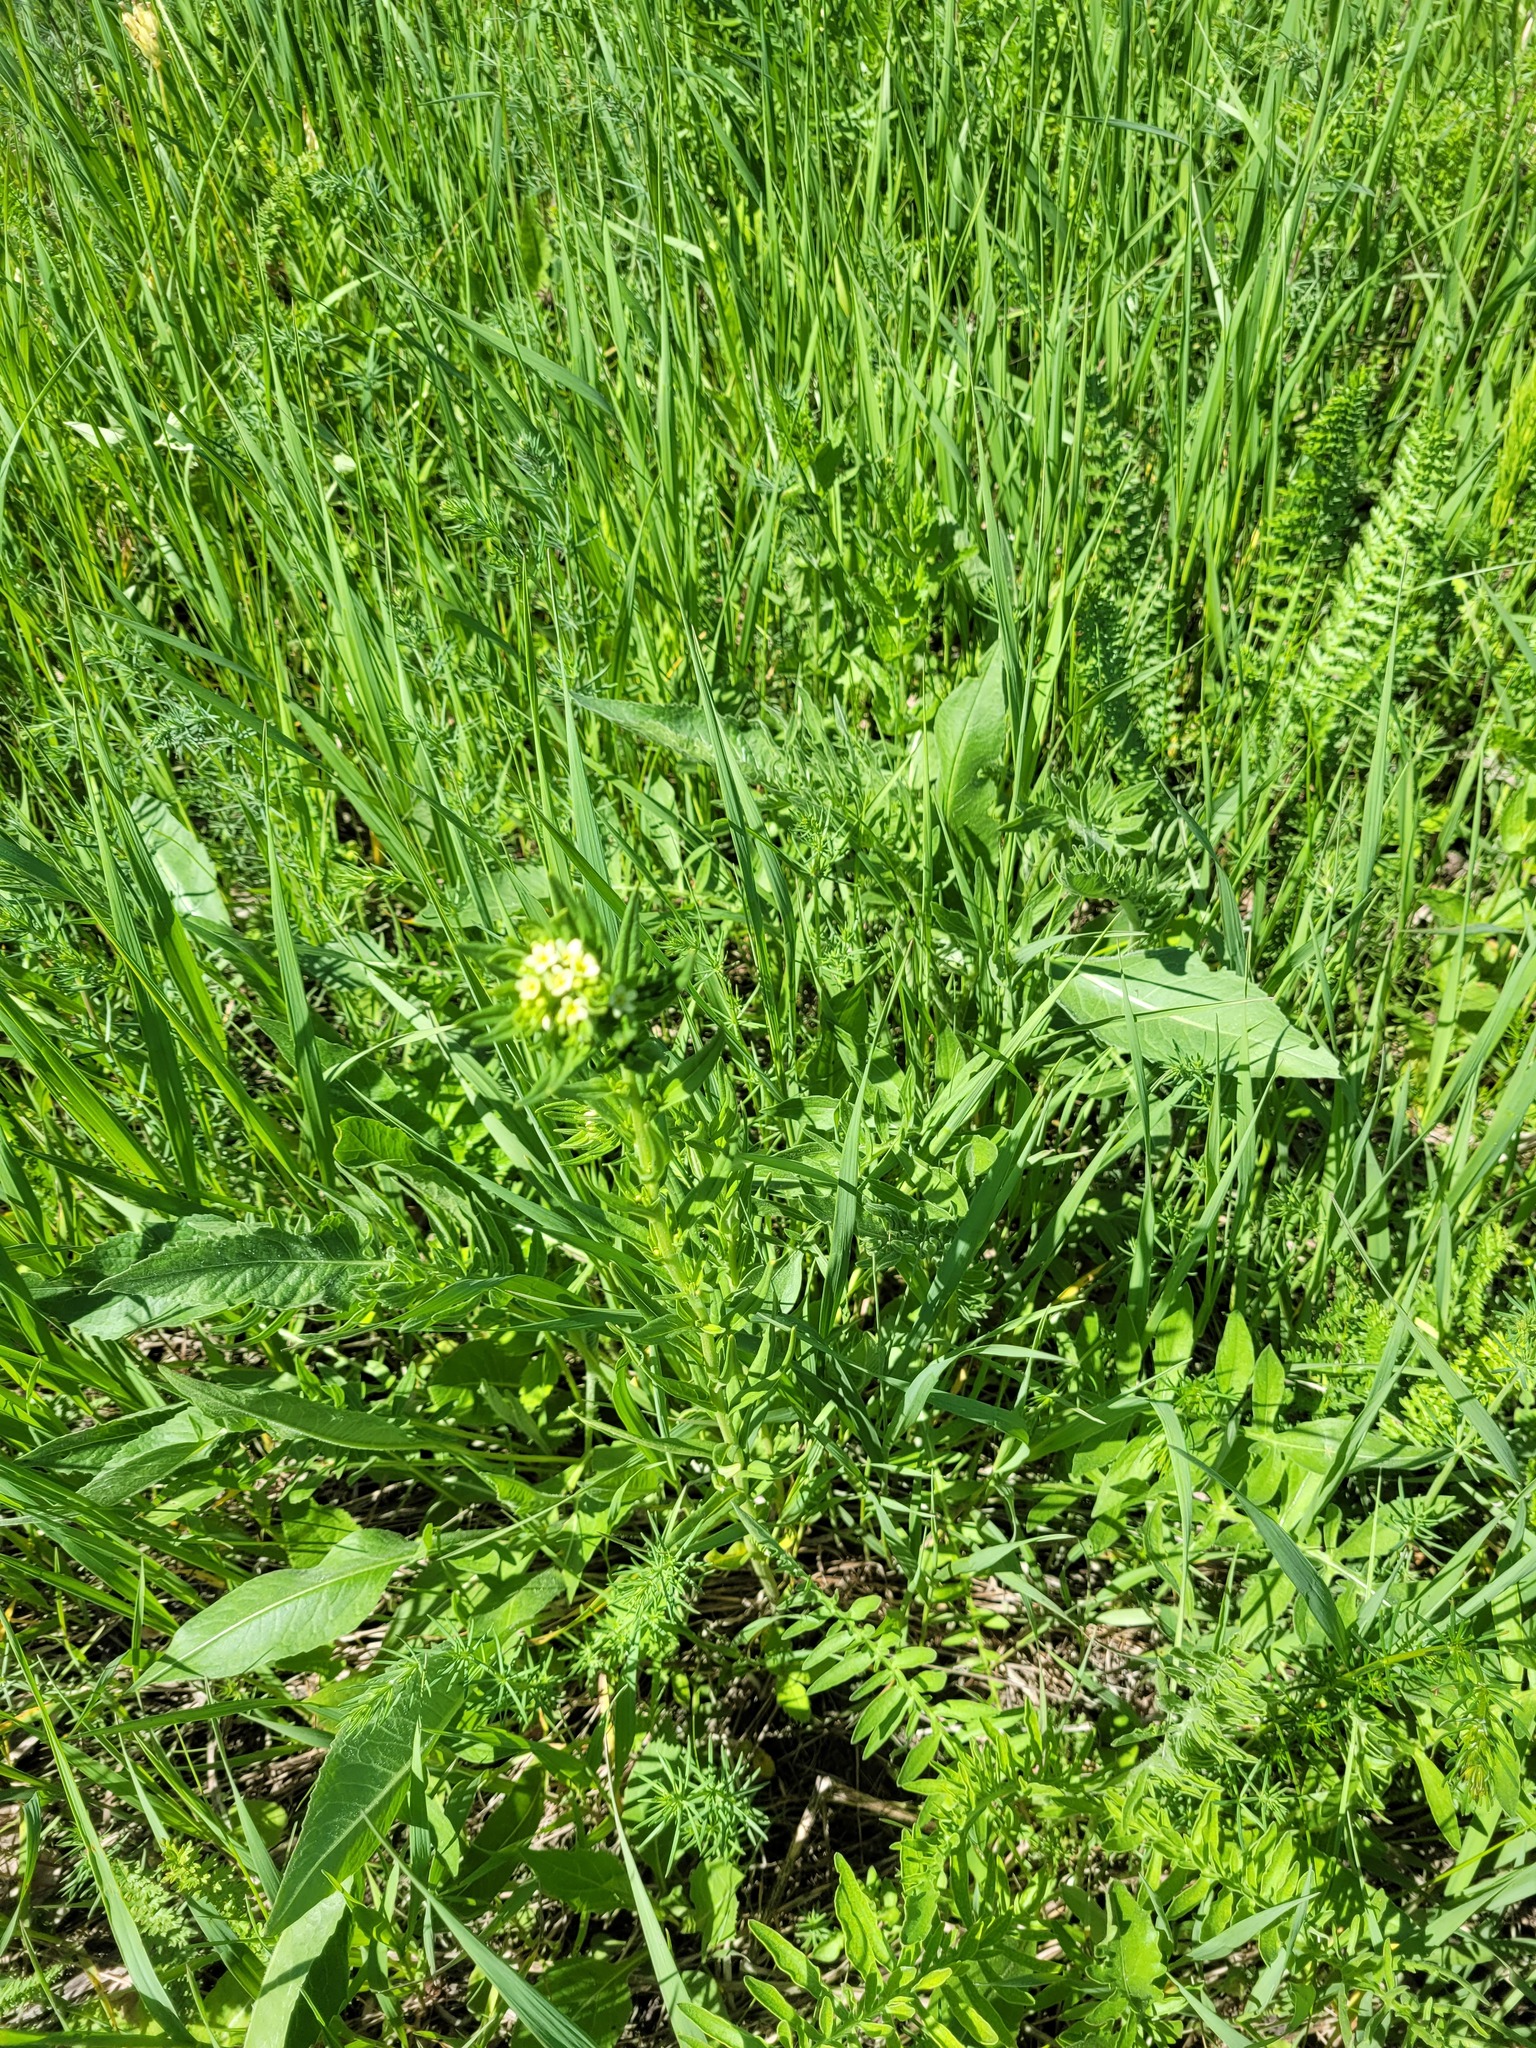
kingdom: Plantae
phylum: Tracheophyta
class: Magnoliopsida
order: Boraginales
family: Boraginaceae
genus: Lithospermum
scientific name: Lithospermum officinale
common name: Common gromwell
